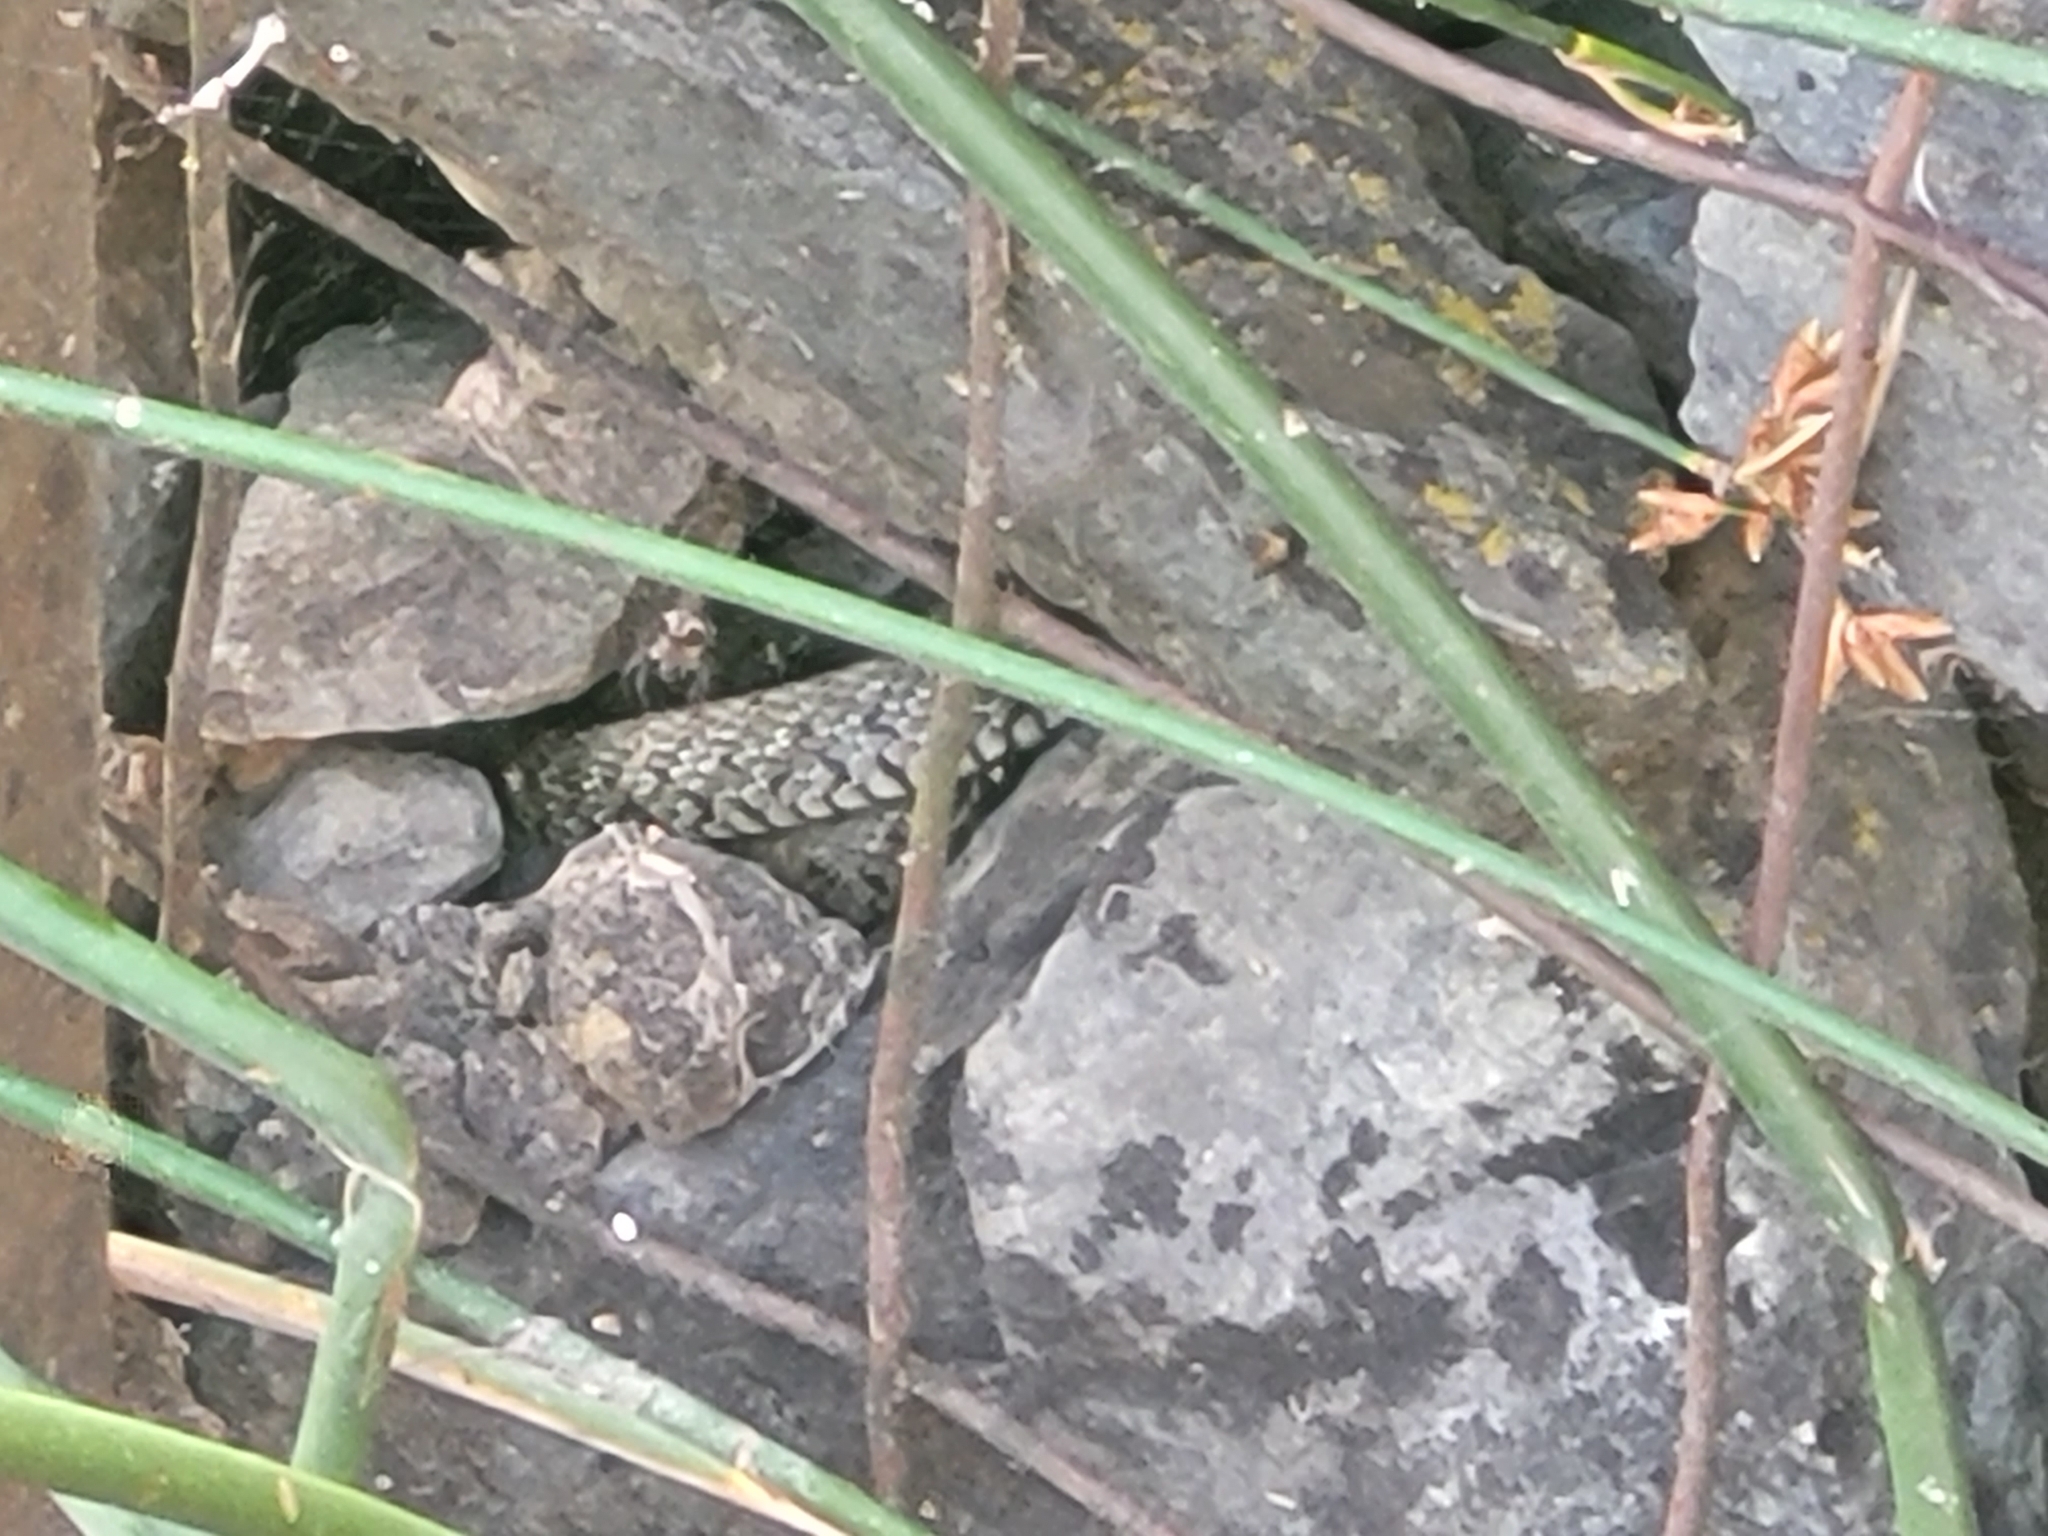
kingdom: Animalia
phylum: Chordata
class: Squamata
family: Colubridae
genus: Natrix
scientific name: Natrix natrix
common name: Grass snake
